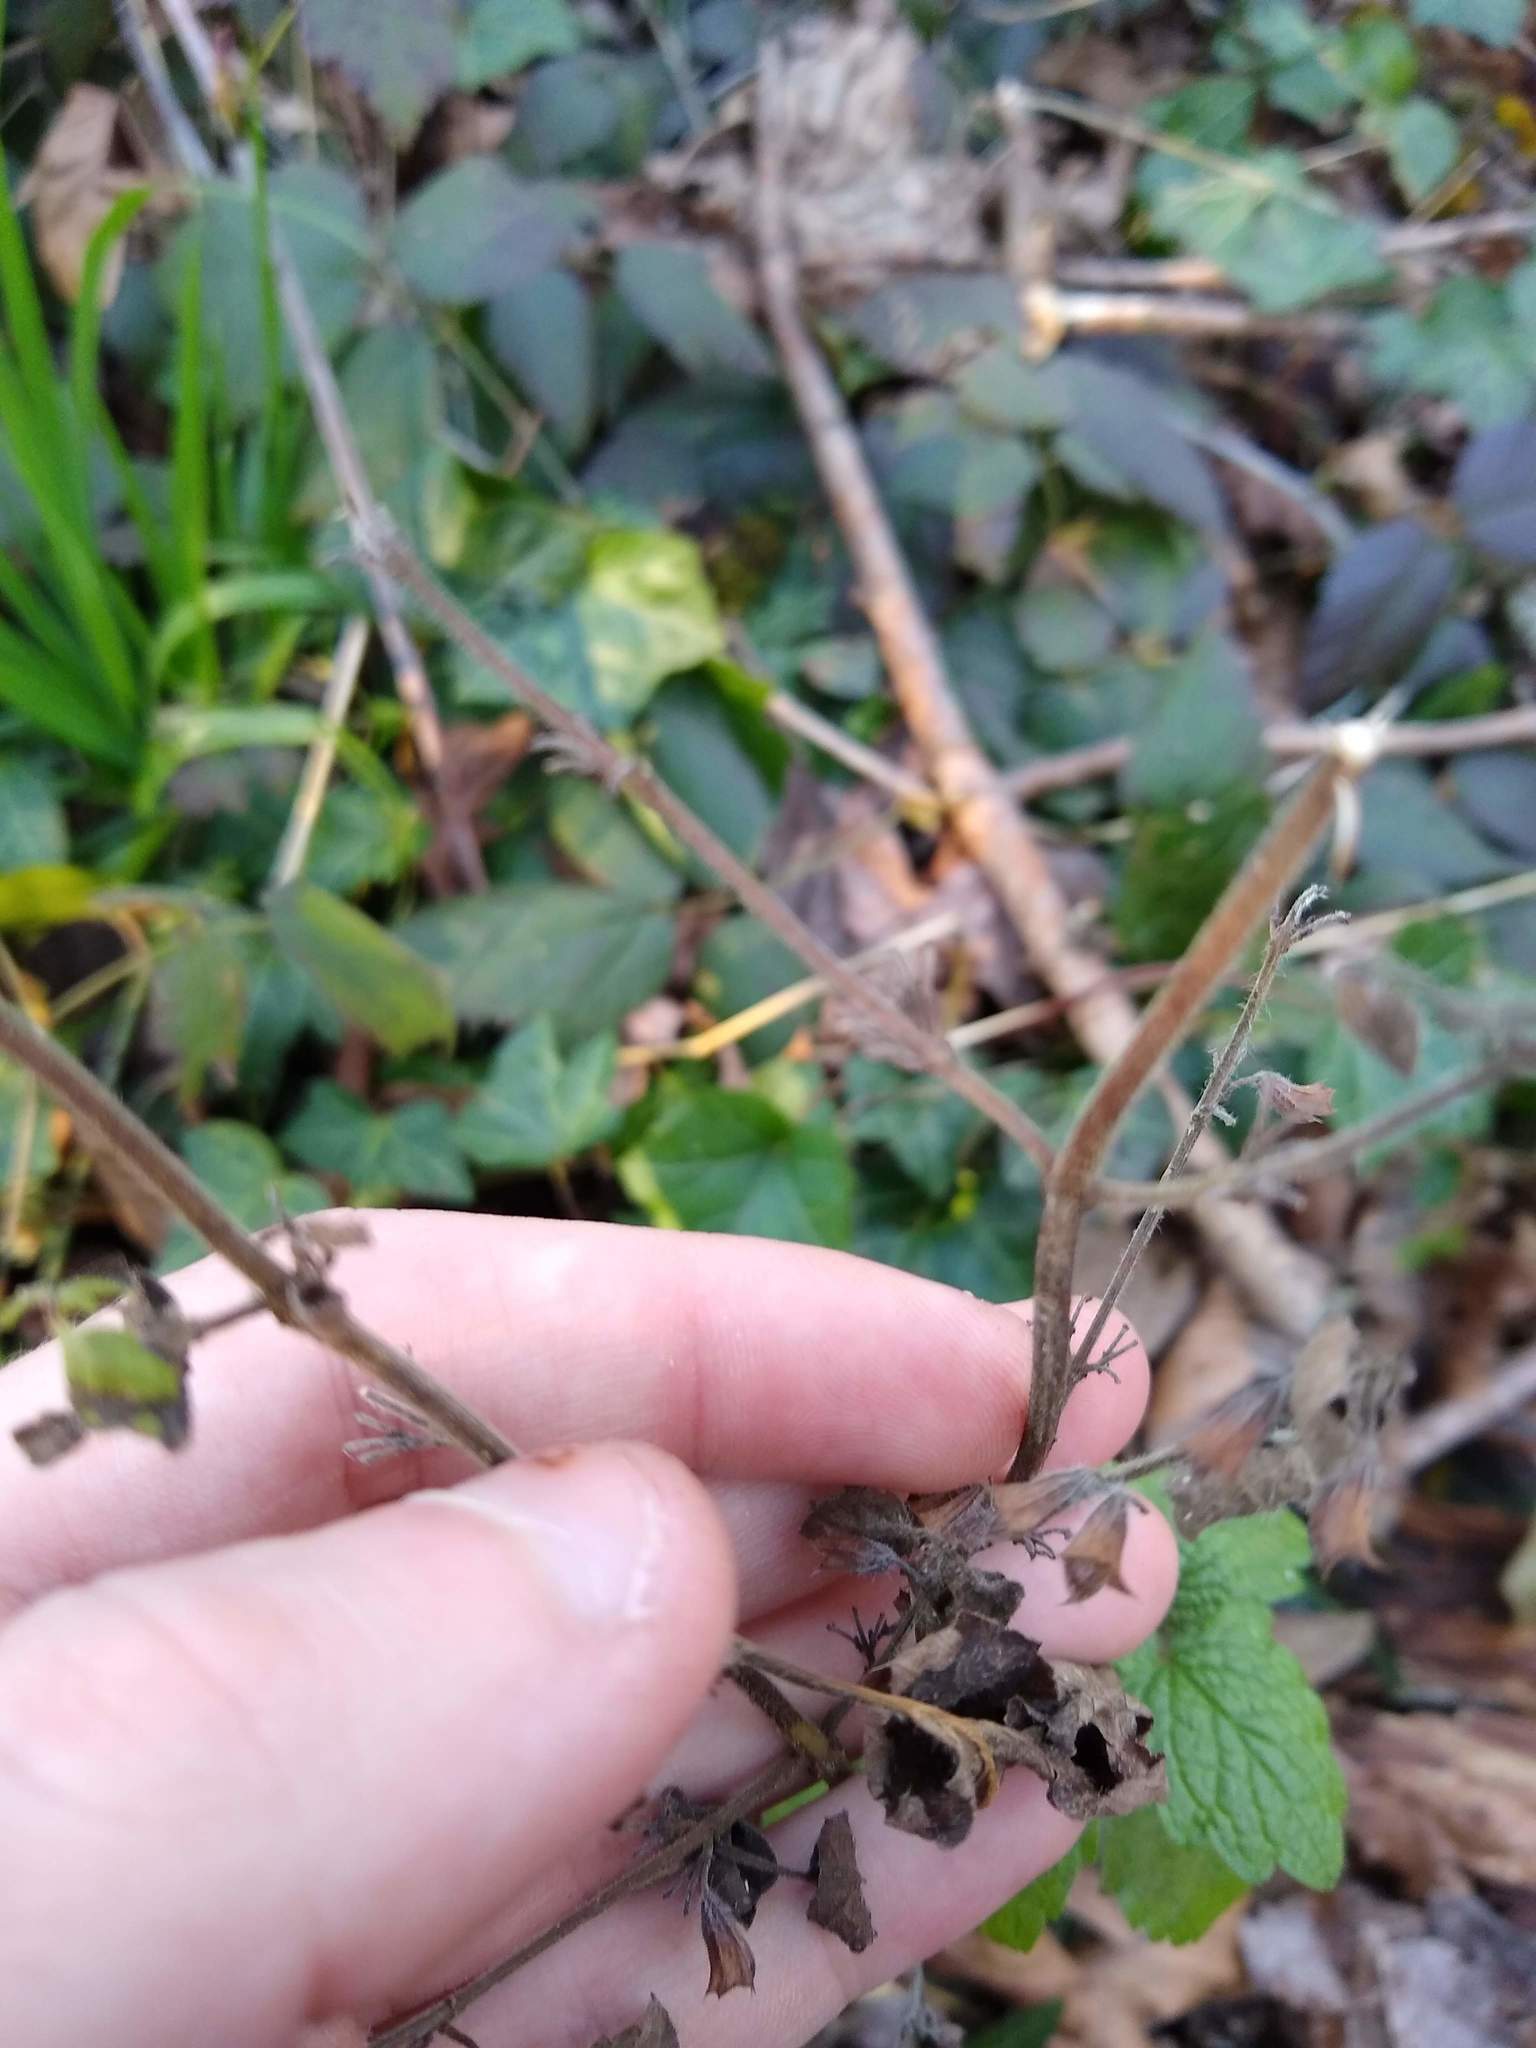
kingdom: Plantae
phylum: Tracheophyta
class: Magnoliopsida
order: Lamiales
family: Lamiaceae
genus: Melissa
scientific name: Melissa officinalis
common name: Balm
